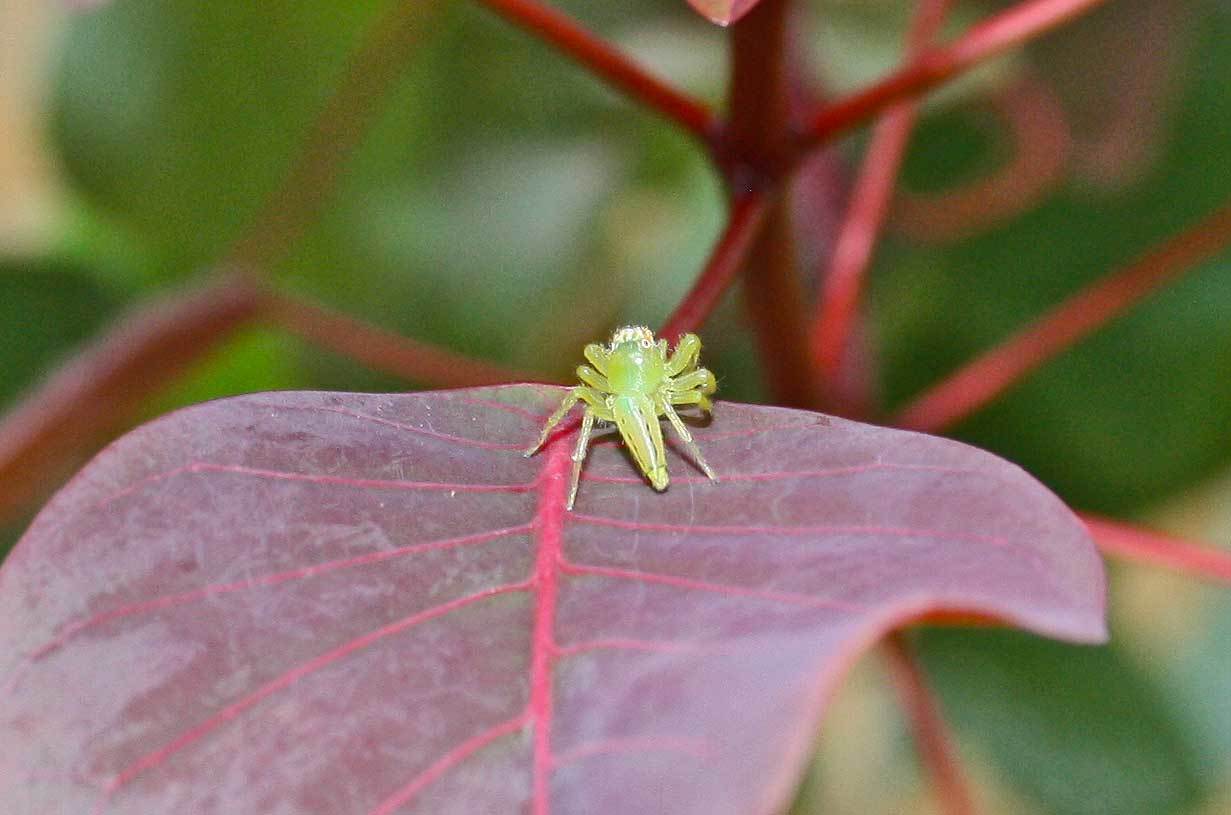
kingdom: Animalia
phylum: Arthropoda
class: Arachnida
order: Araneae
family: Salticidae
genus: Mopsus
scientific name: Mopsus mormon
